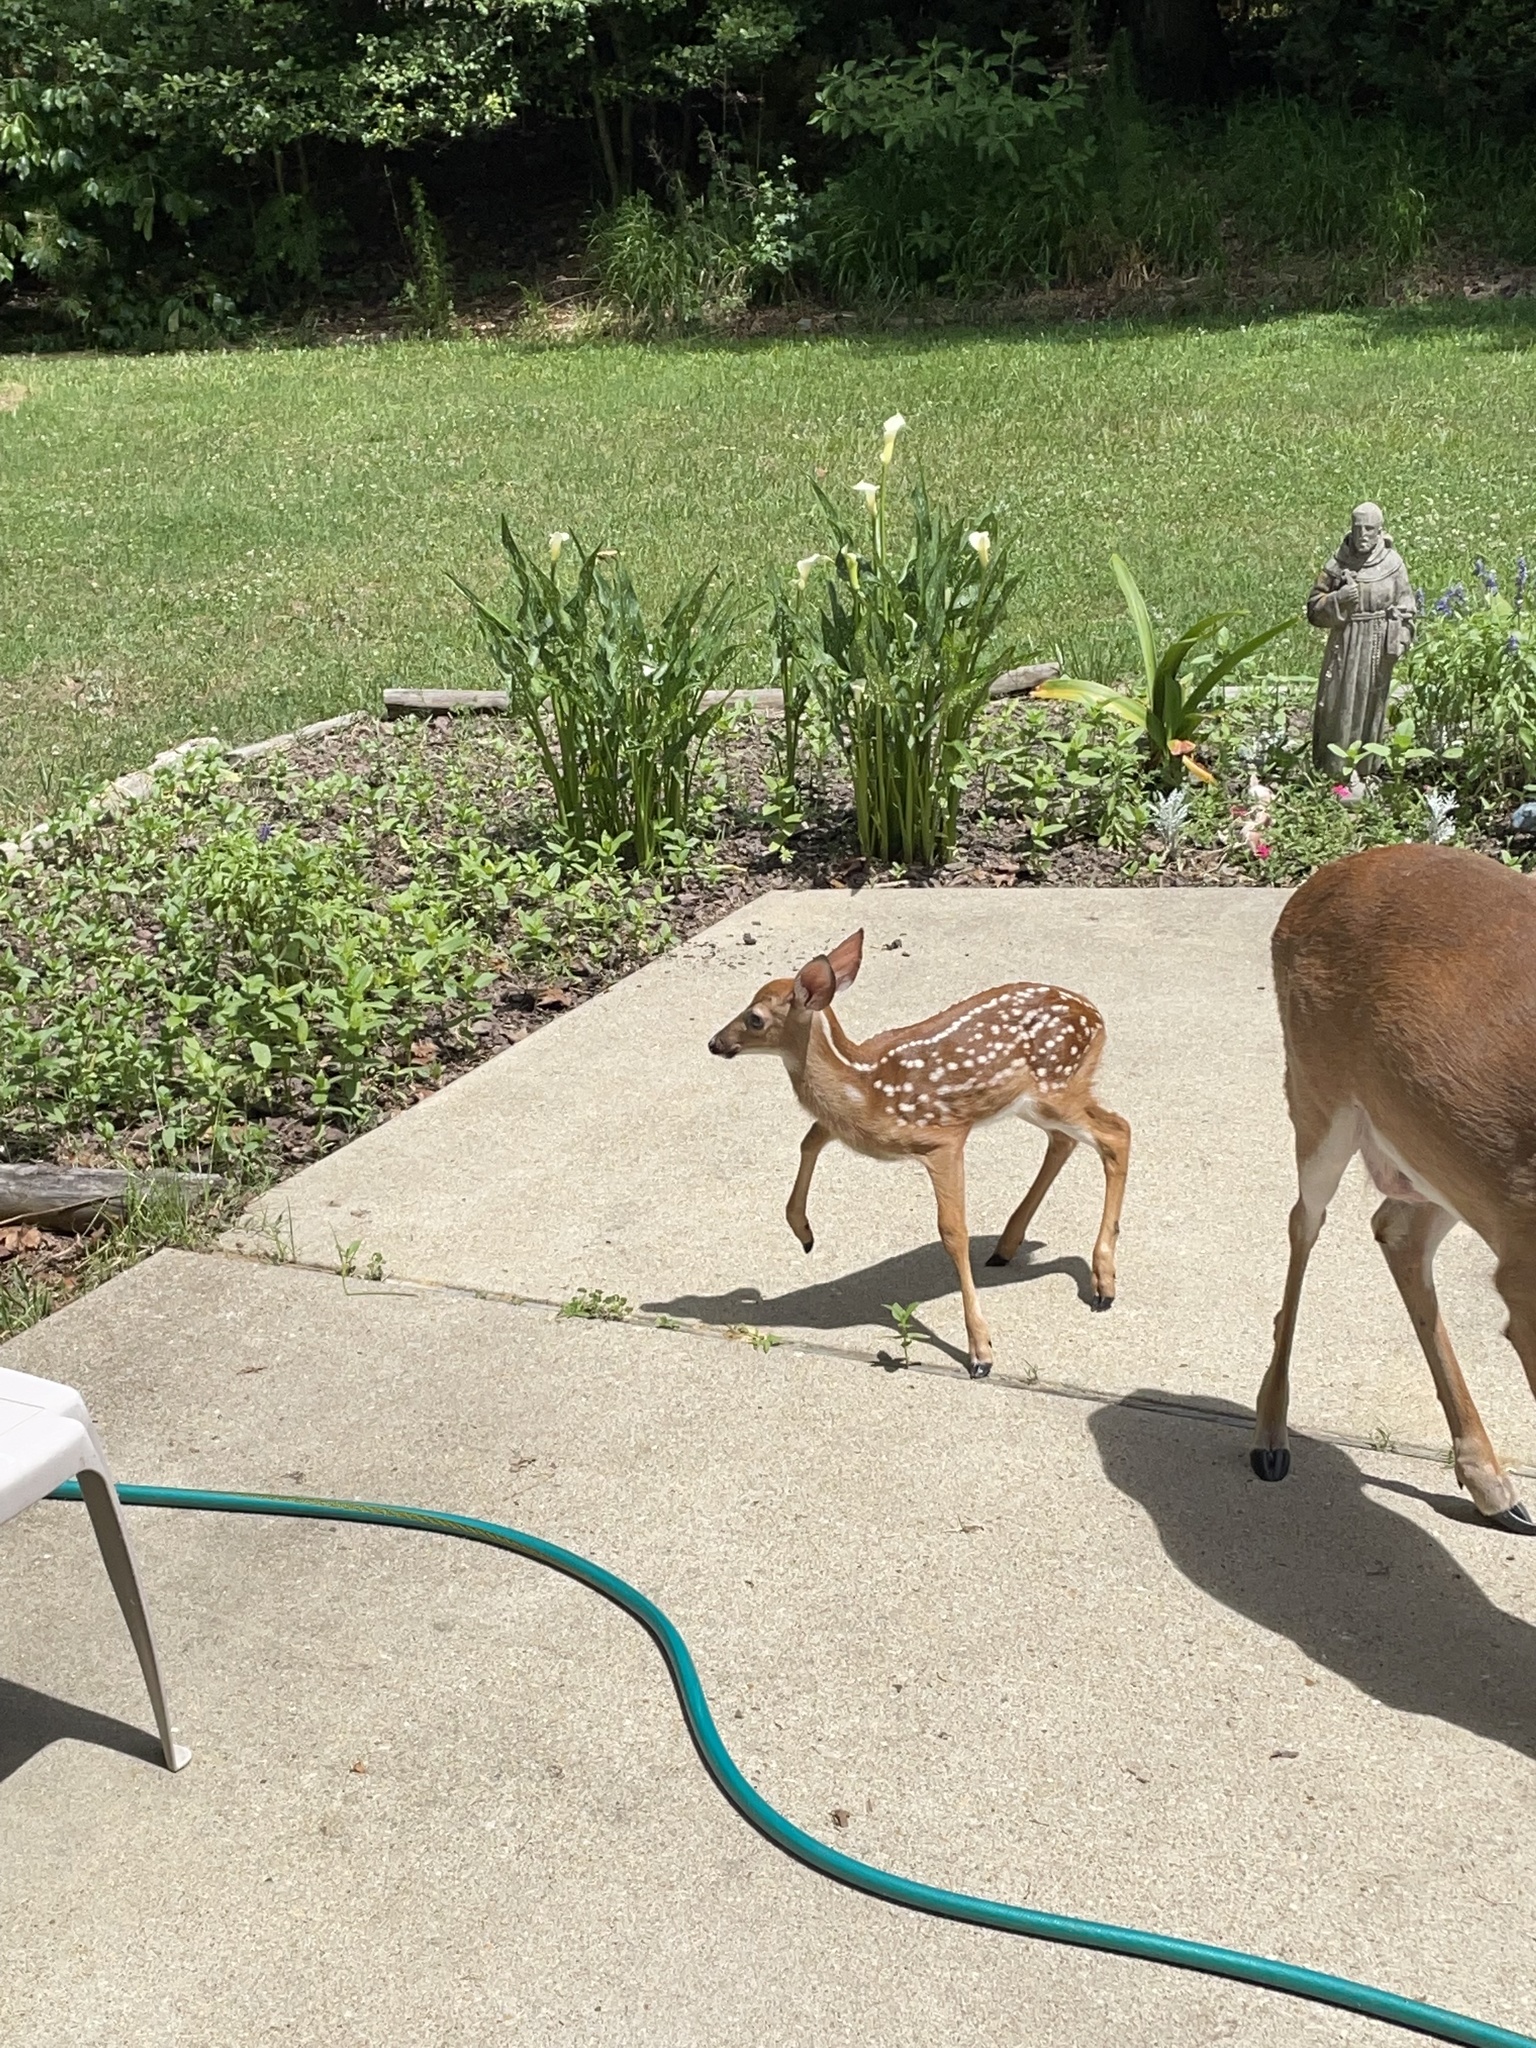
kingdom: Animalia
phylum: Chordata
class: Mammalia
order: Artiodactyla
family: Cervidae
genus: Odocoileus
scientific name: Odocoileus virginianus
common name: White-tailed deer
